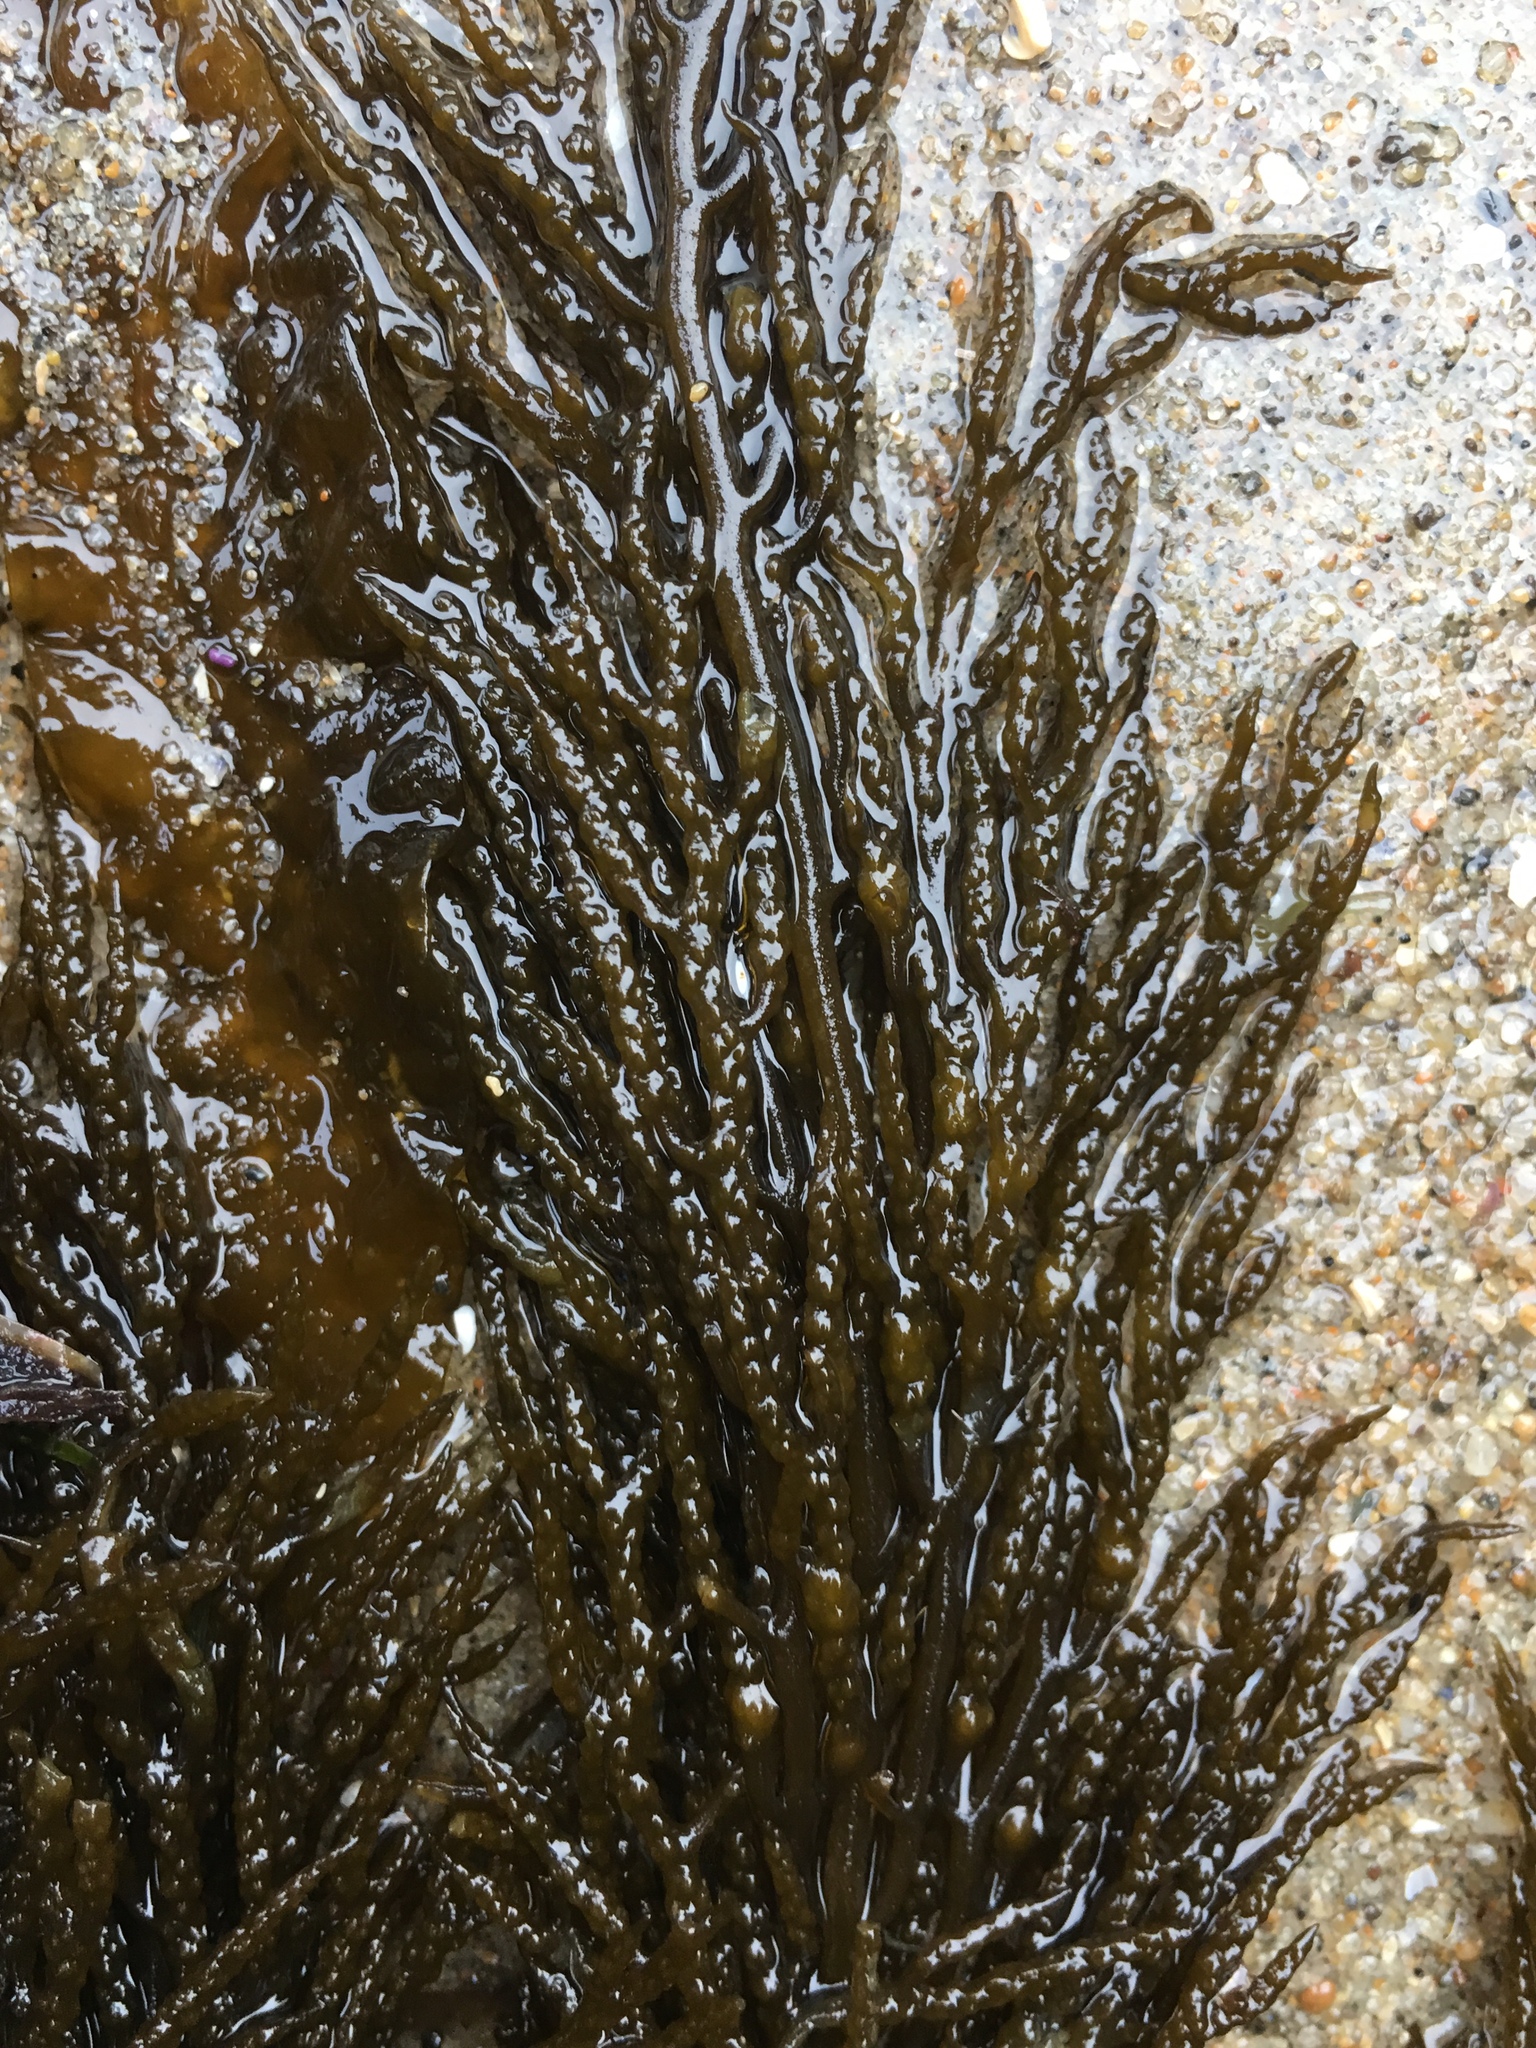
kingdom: Chromista
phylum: Ochrophyta
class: Phaeophyceae
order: Fucales
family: Sargassaceae
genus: Stephanocystis
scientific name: Stephanocystis
